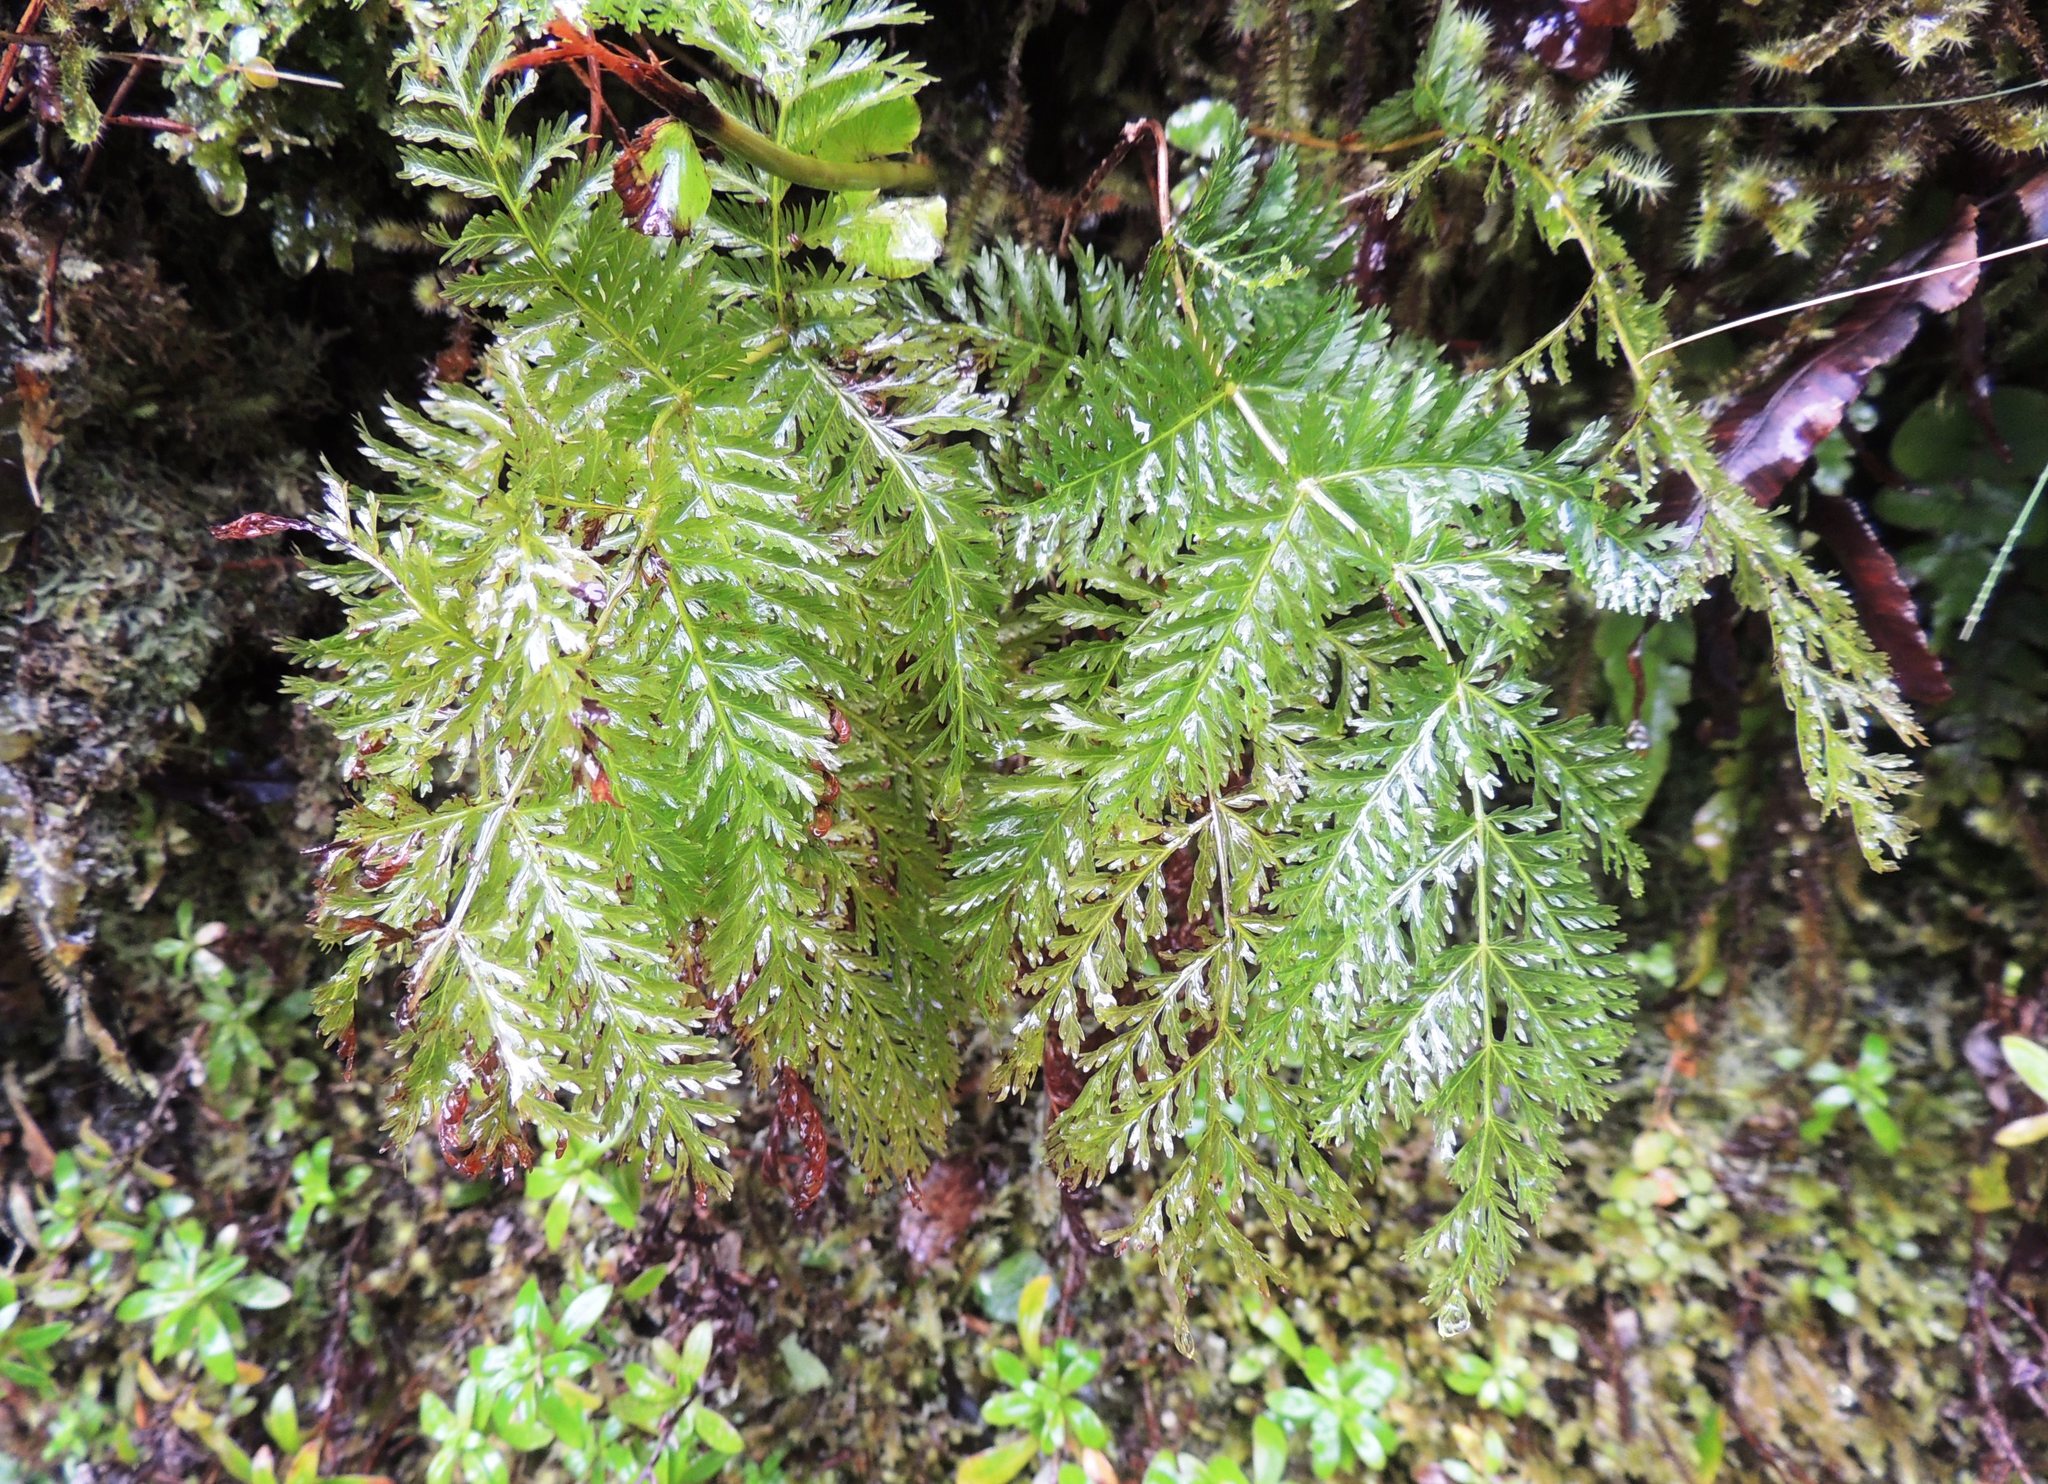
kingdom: Plantae
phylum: Tracheophyta
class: Polypodiopsida
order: Osmundales
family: Osmundaceae
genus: Leptopteris
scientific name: Leptopteris hymenophylloides
